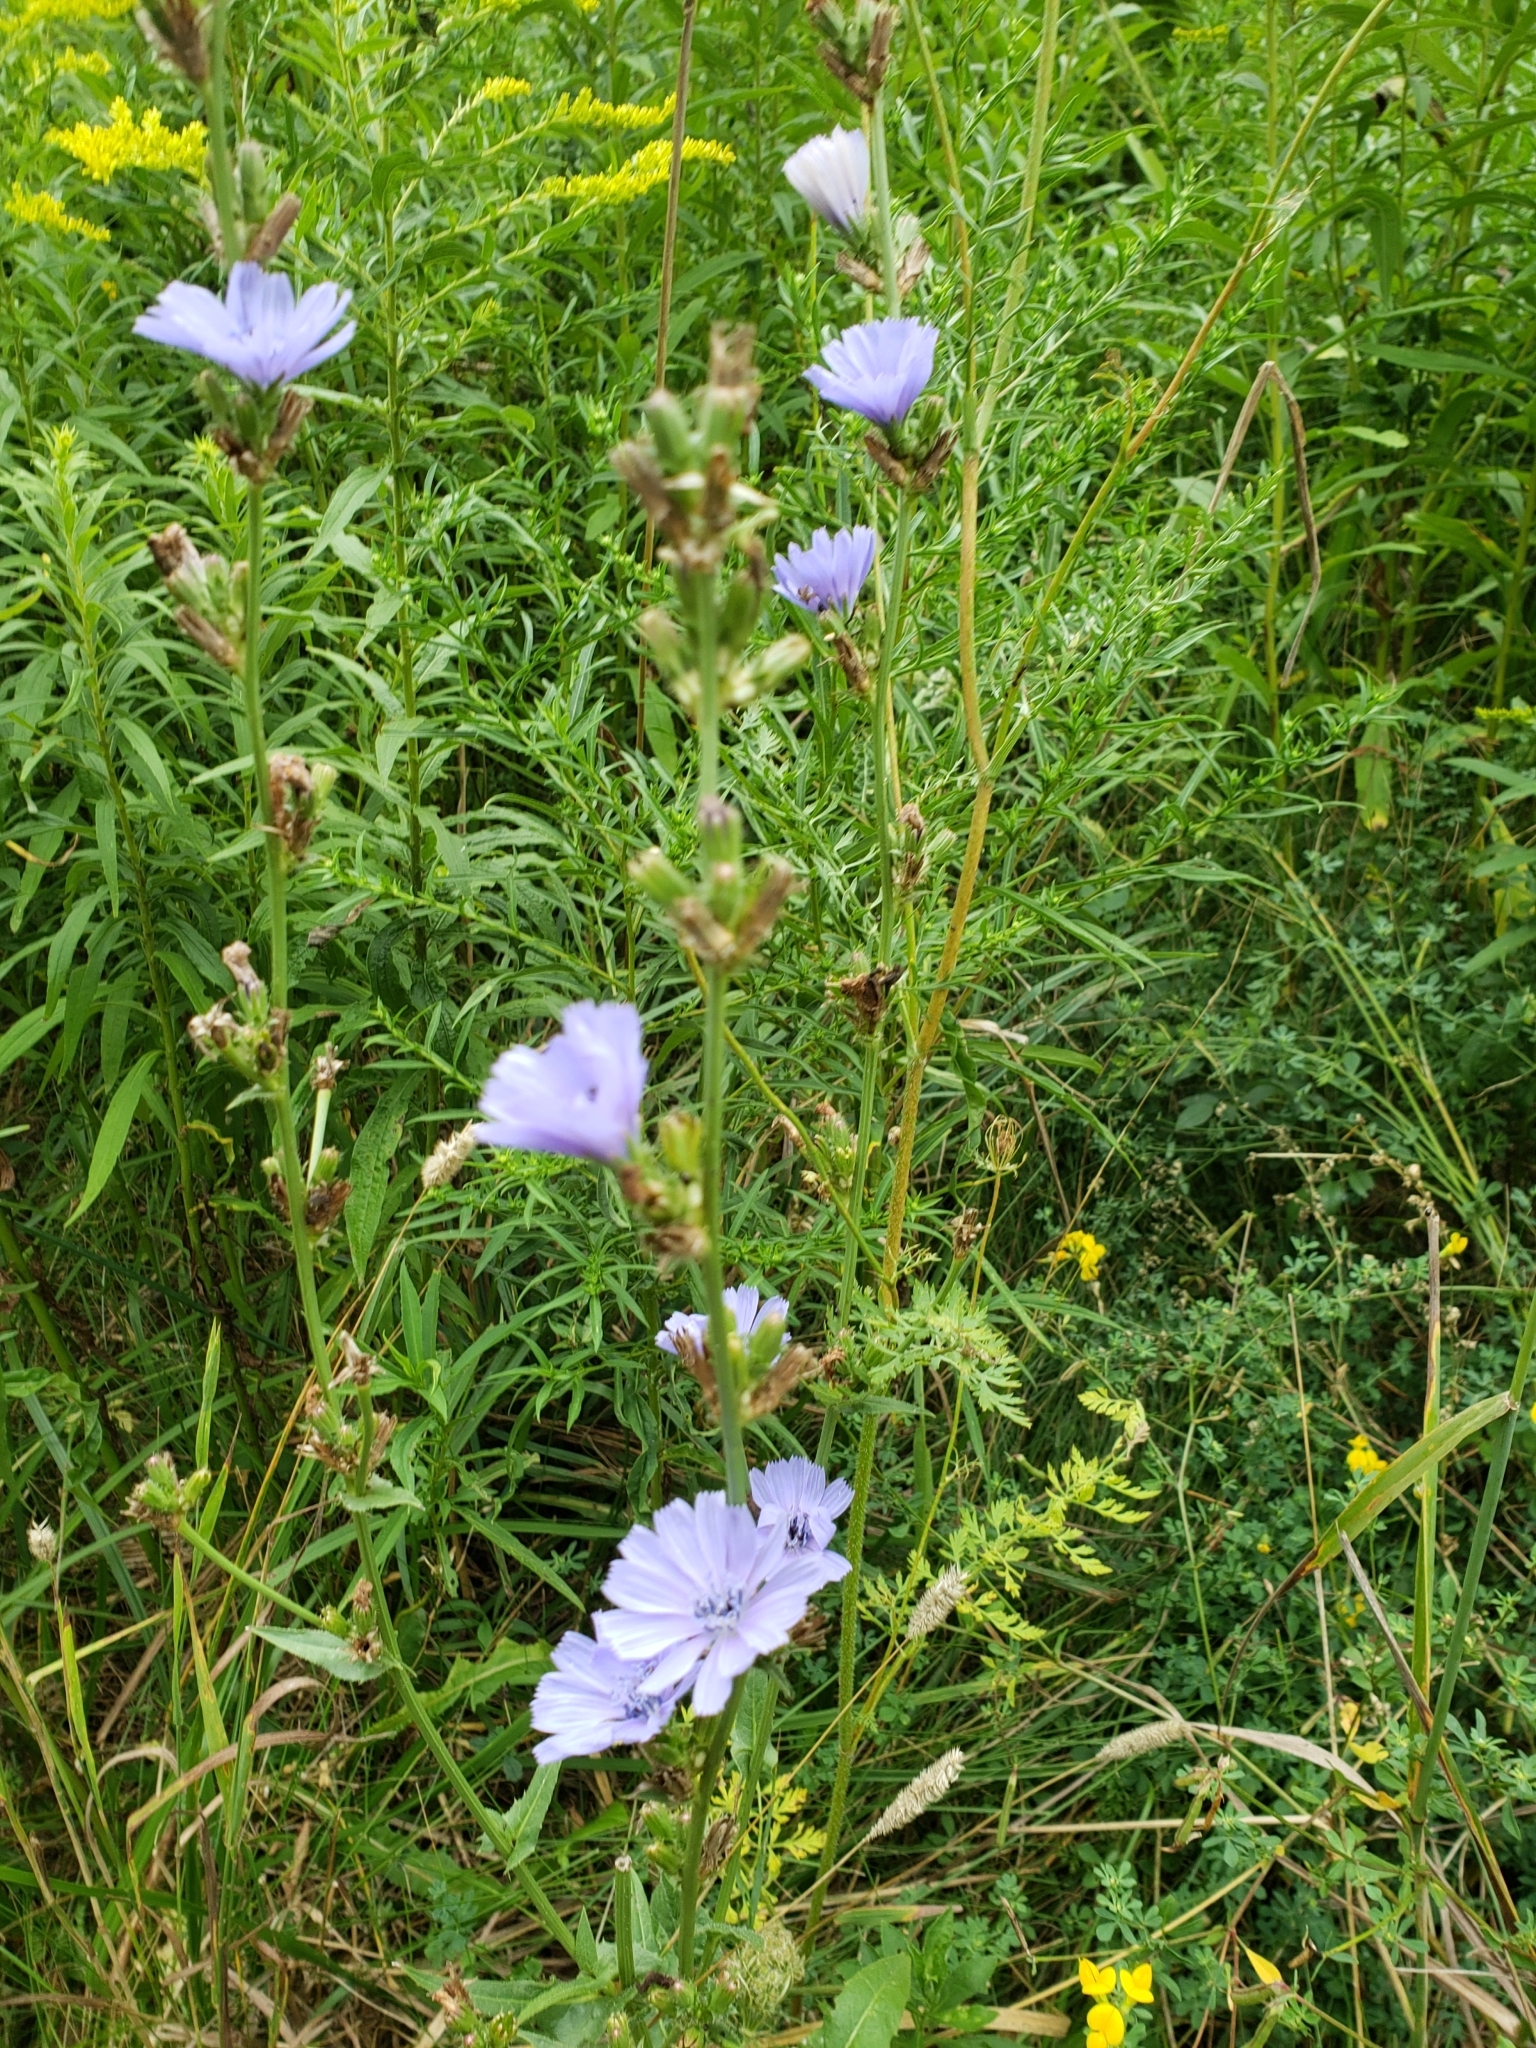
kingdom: Plantae
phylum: Tracheophyta
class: Magnoliopsida
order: Asterales
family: Asteraceae
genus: Cichorium
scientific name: Cichorium intybus
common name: Chicory
